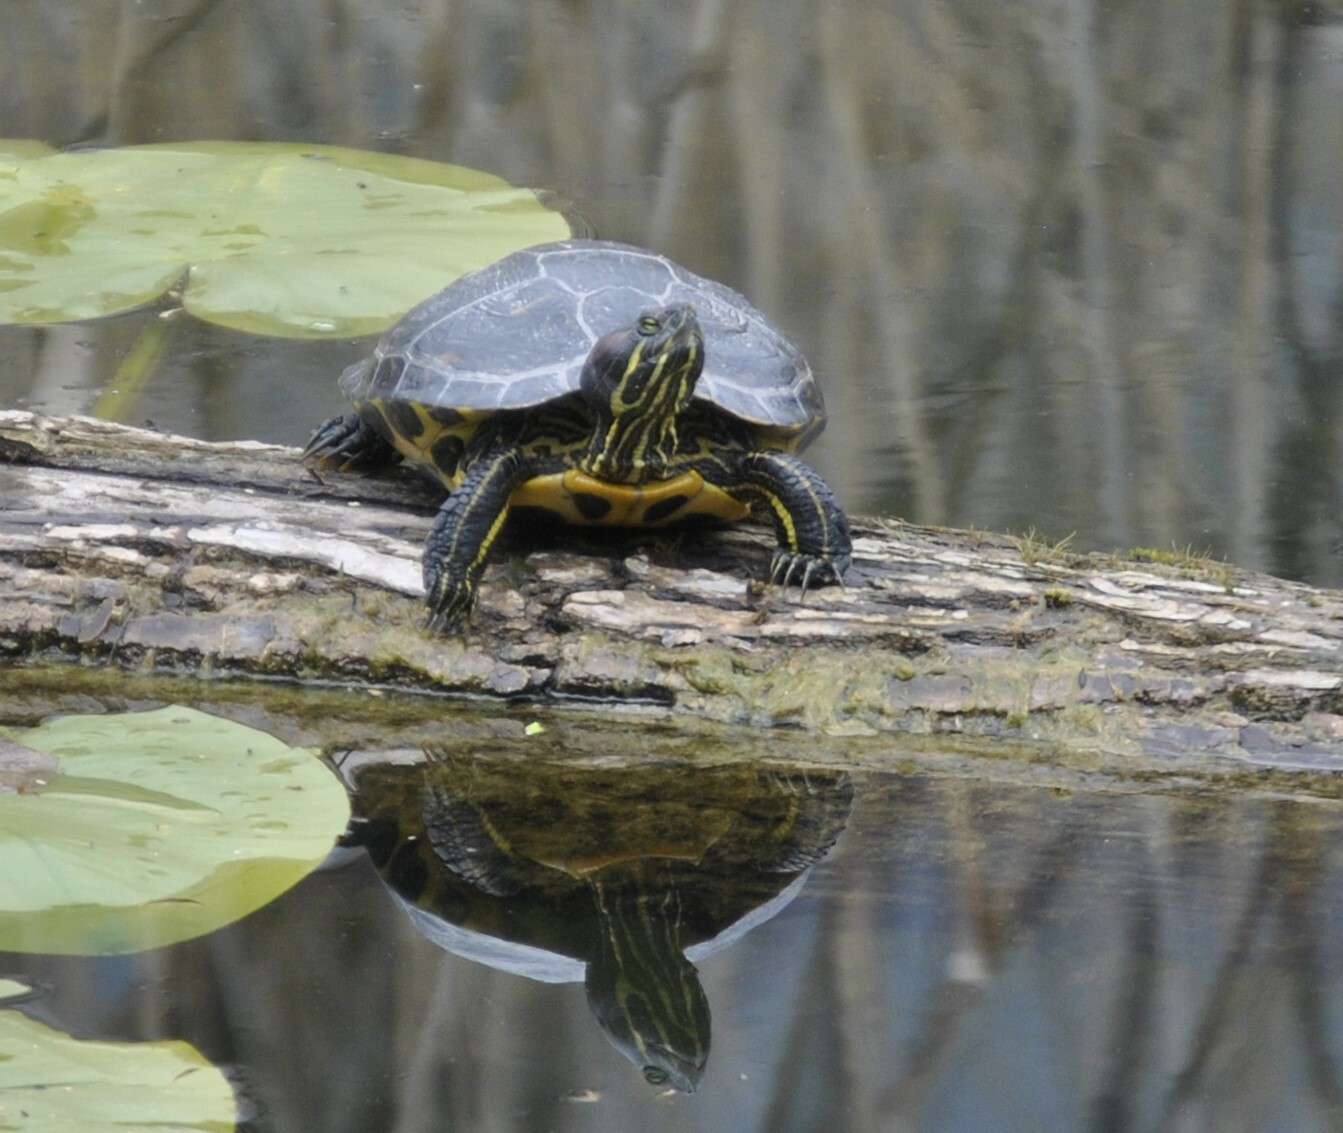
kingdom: Animalia
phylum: Chordata
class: Testudines
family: Emydidae
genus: Trachemys
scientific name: Trachemys scripta
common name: Slider
